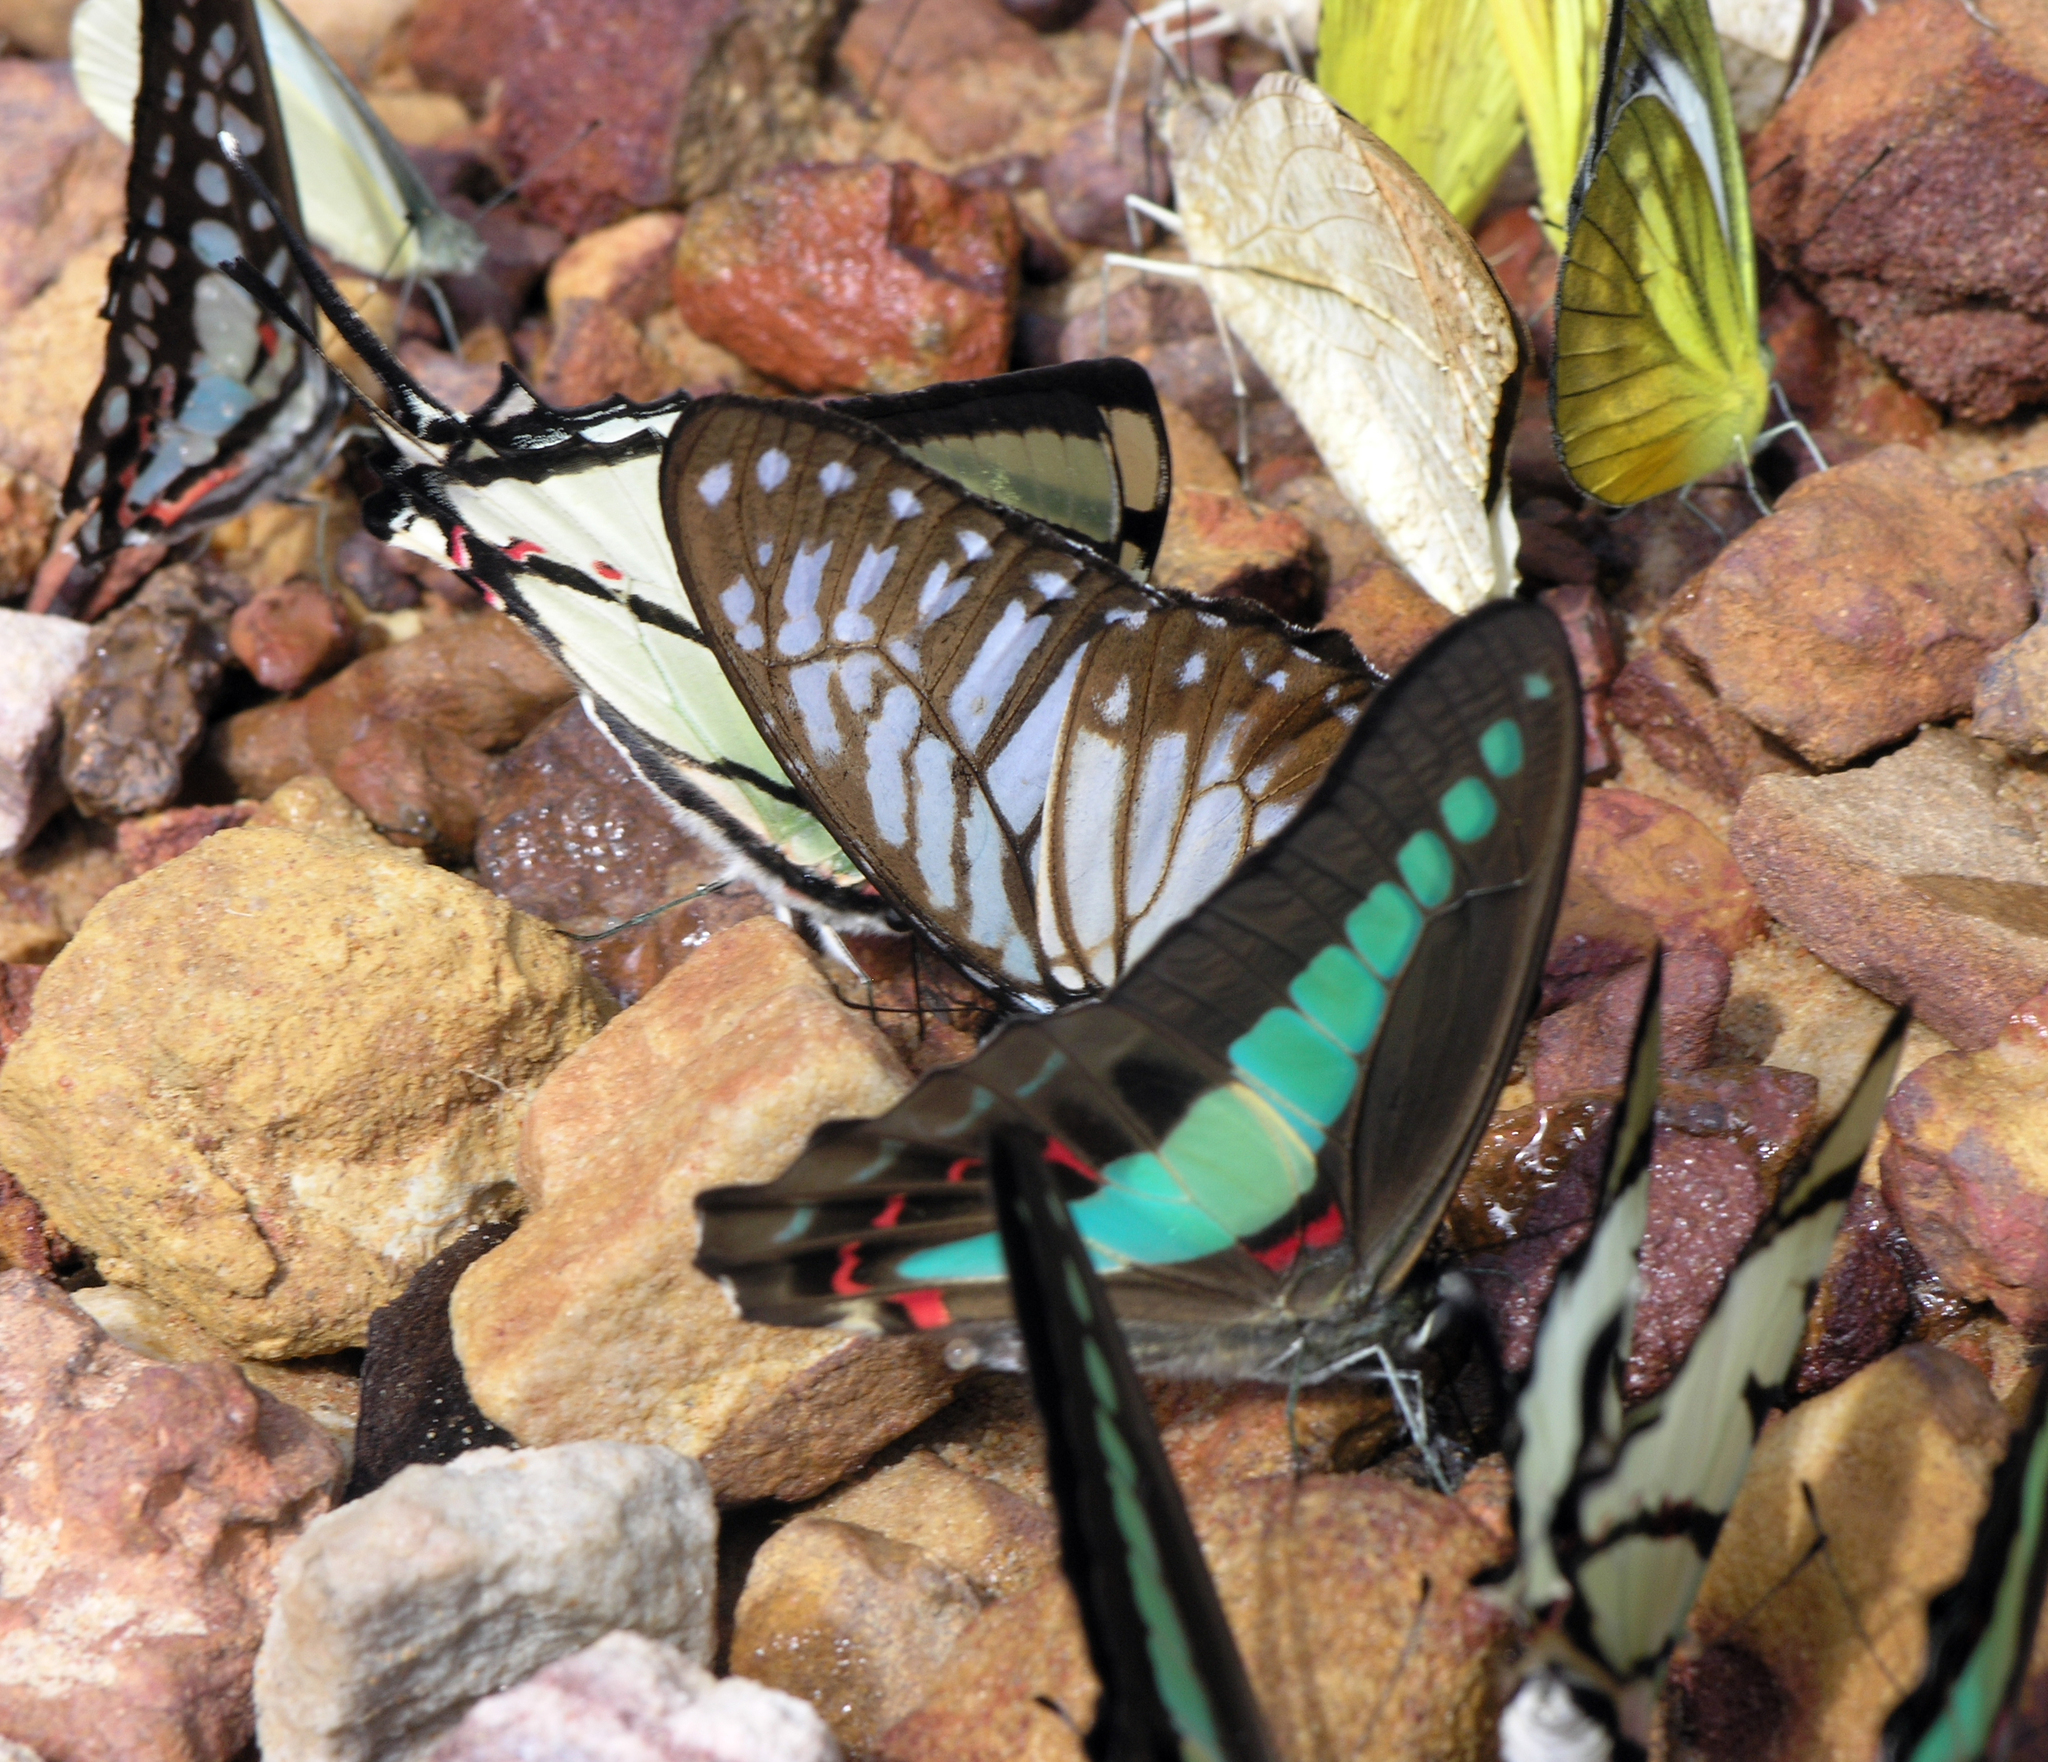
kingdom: Animalia
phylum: Arthropoda
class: Insecta
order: Lepidoptera
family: Pieridae
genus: Cepora
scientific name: Cepora nadina
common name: Lesser gull
